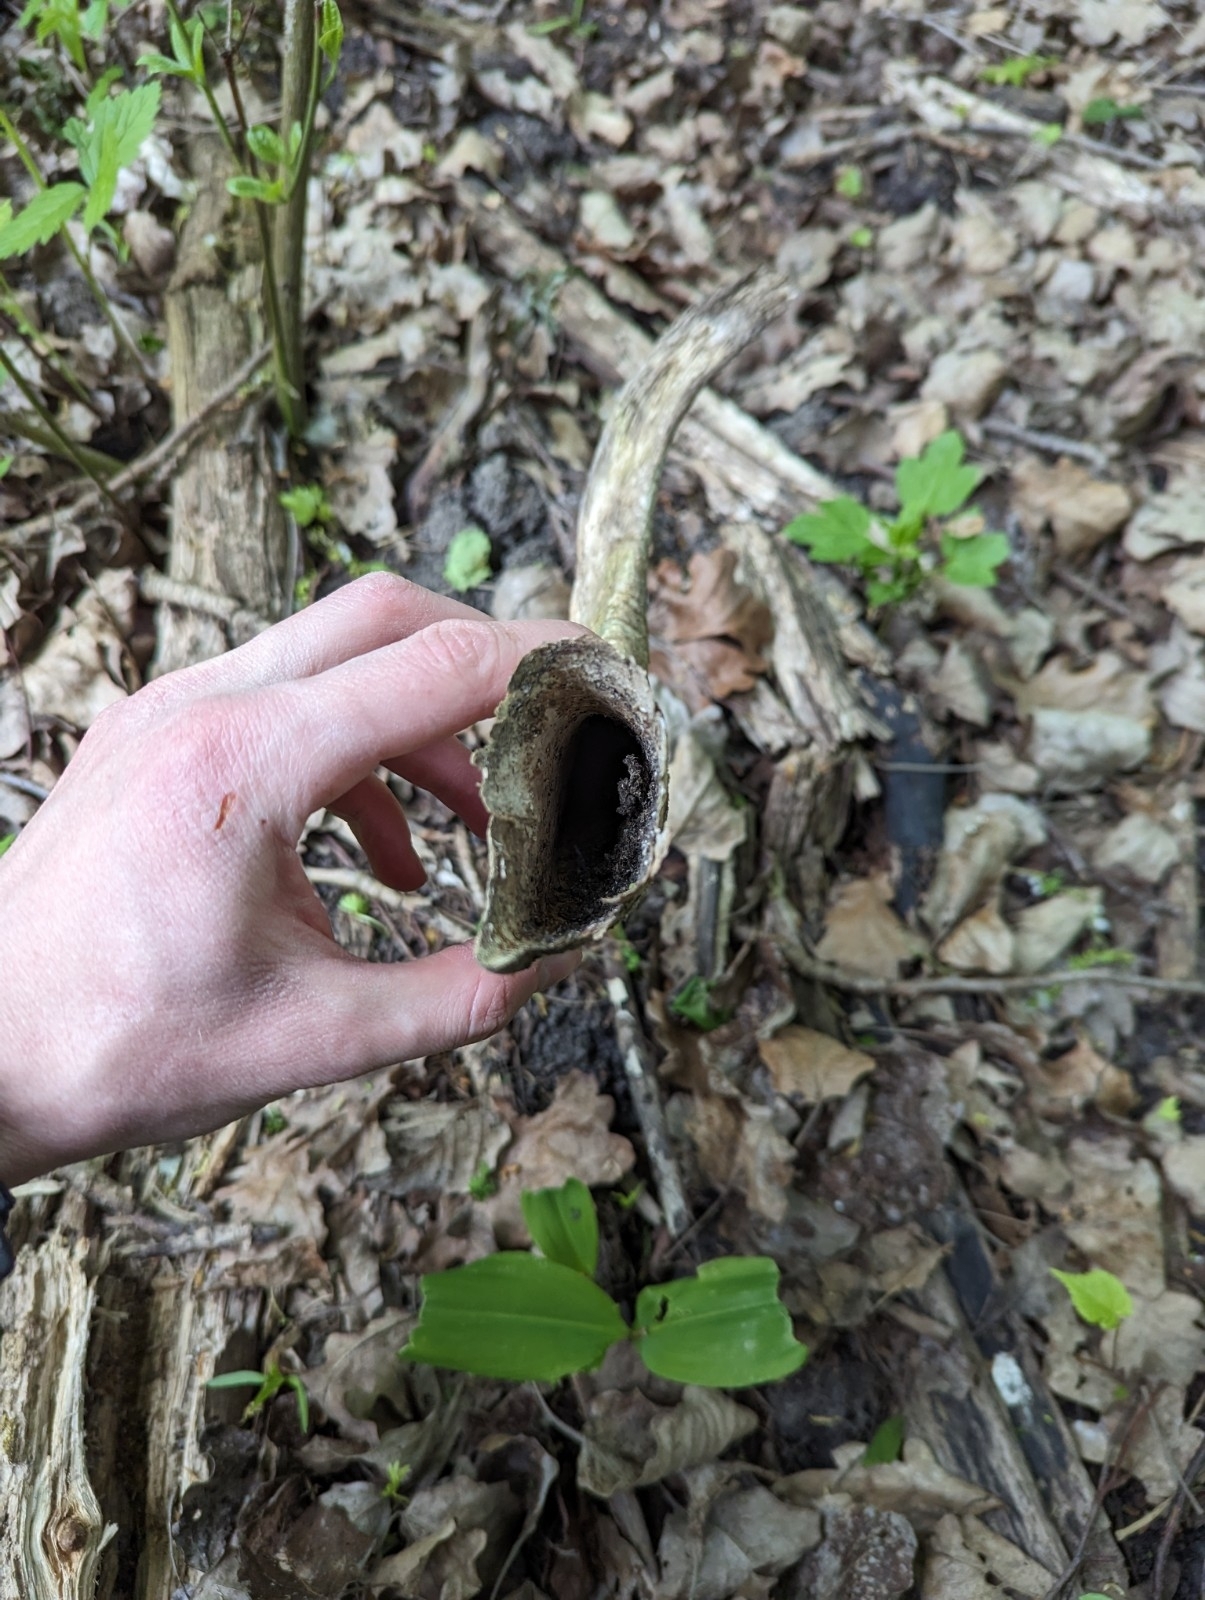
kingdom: Animalia
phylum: Chordata
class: Mammalia
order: Artiodactyla
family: Bovidae
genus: Capra
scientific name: Capra hircus
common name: Domestic goat
